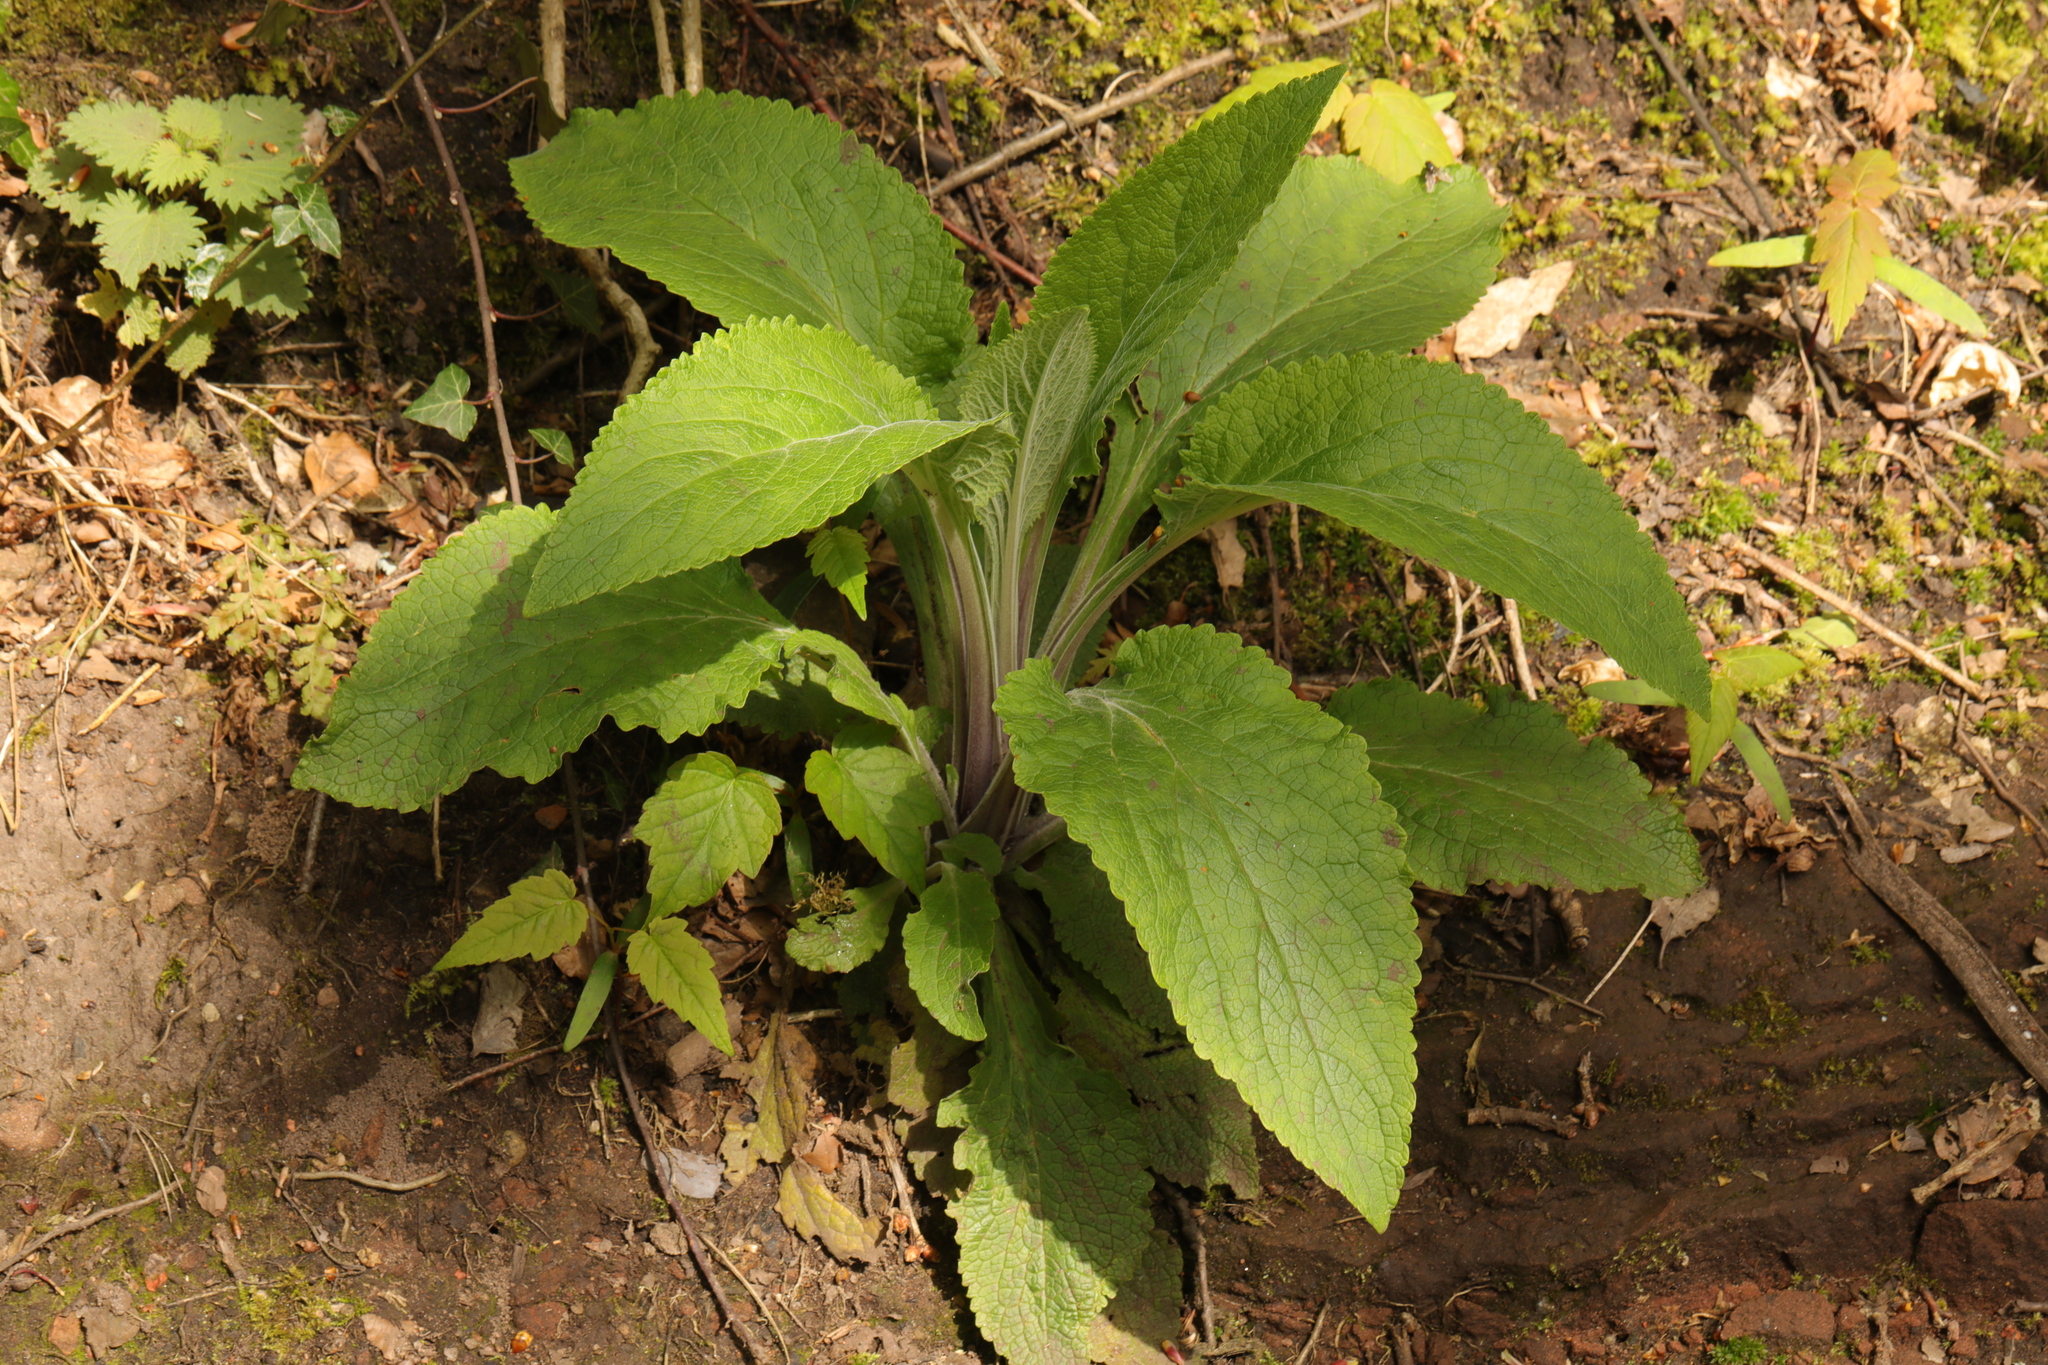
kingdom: Plantae
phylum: Tracheophyta
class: Magnoliopsida
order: Lamiales
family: Plantaginaceae
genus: Digitalis
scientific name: Digitalis purpurea
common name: Foxglove
